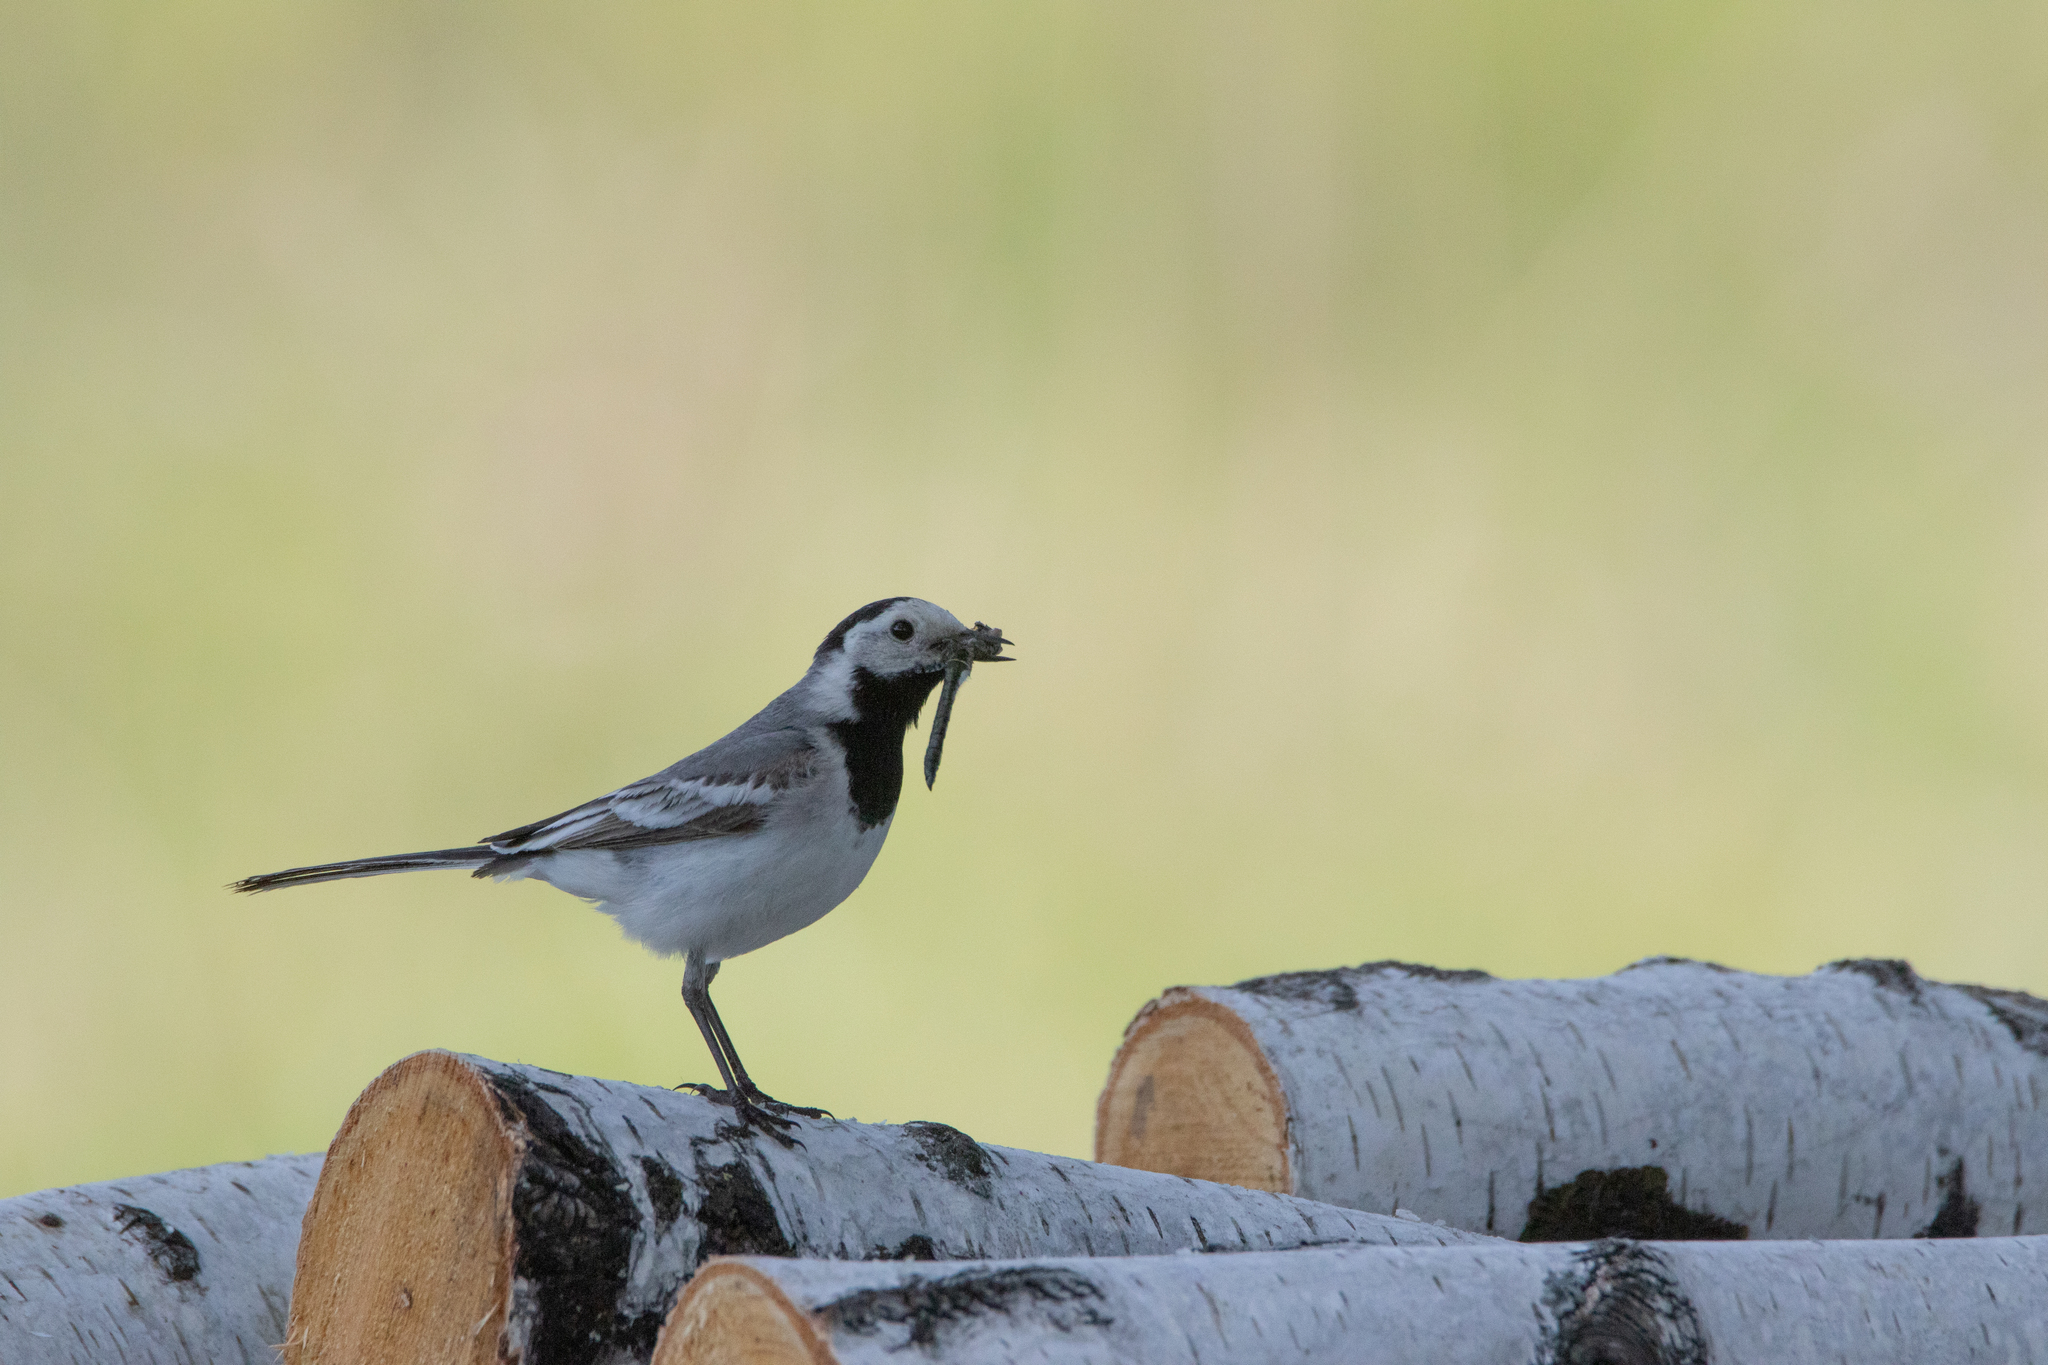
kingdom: Animalia
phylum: Chordata
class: Aves
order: Passeriformes
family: Motacillidae
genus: Motacilla
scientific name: Motacilla alba
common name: White wagtail
